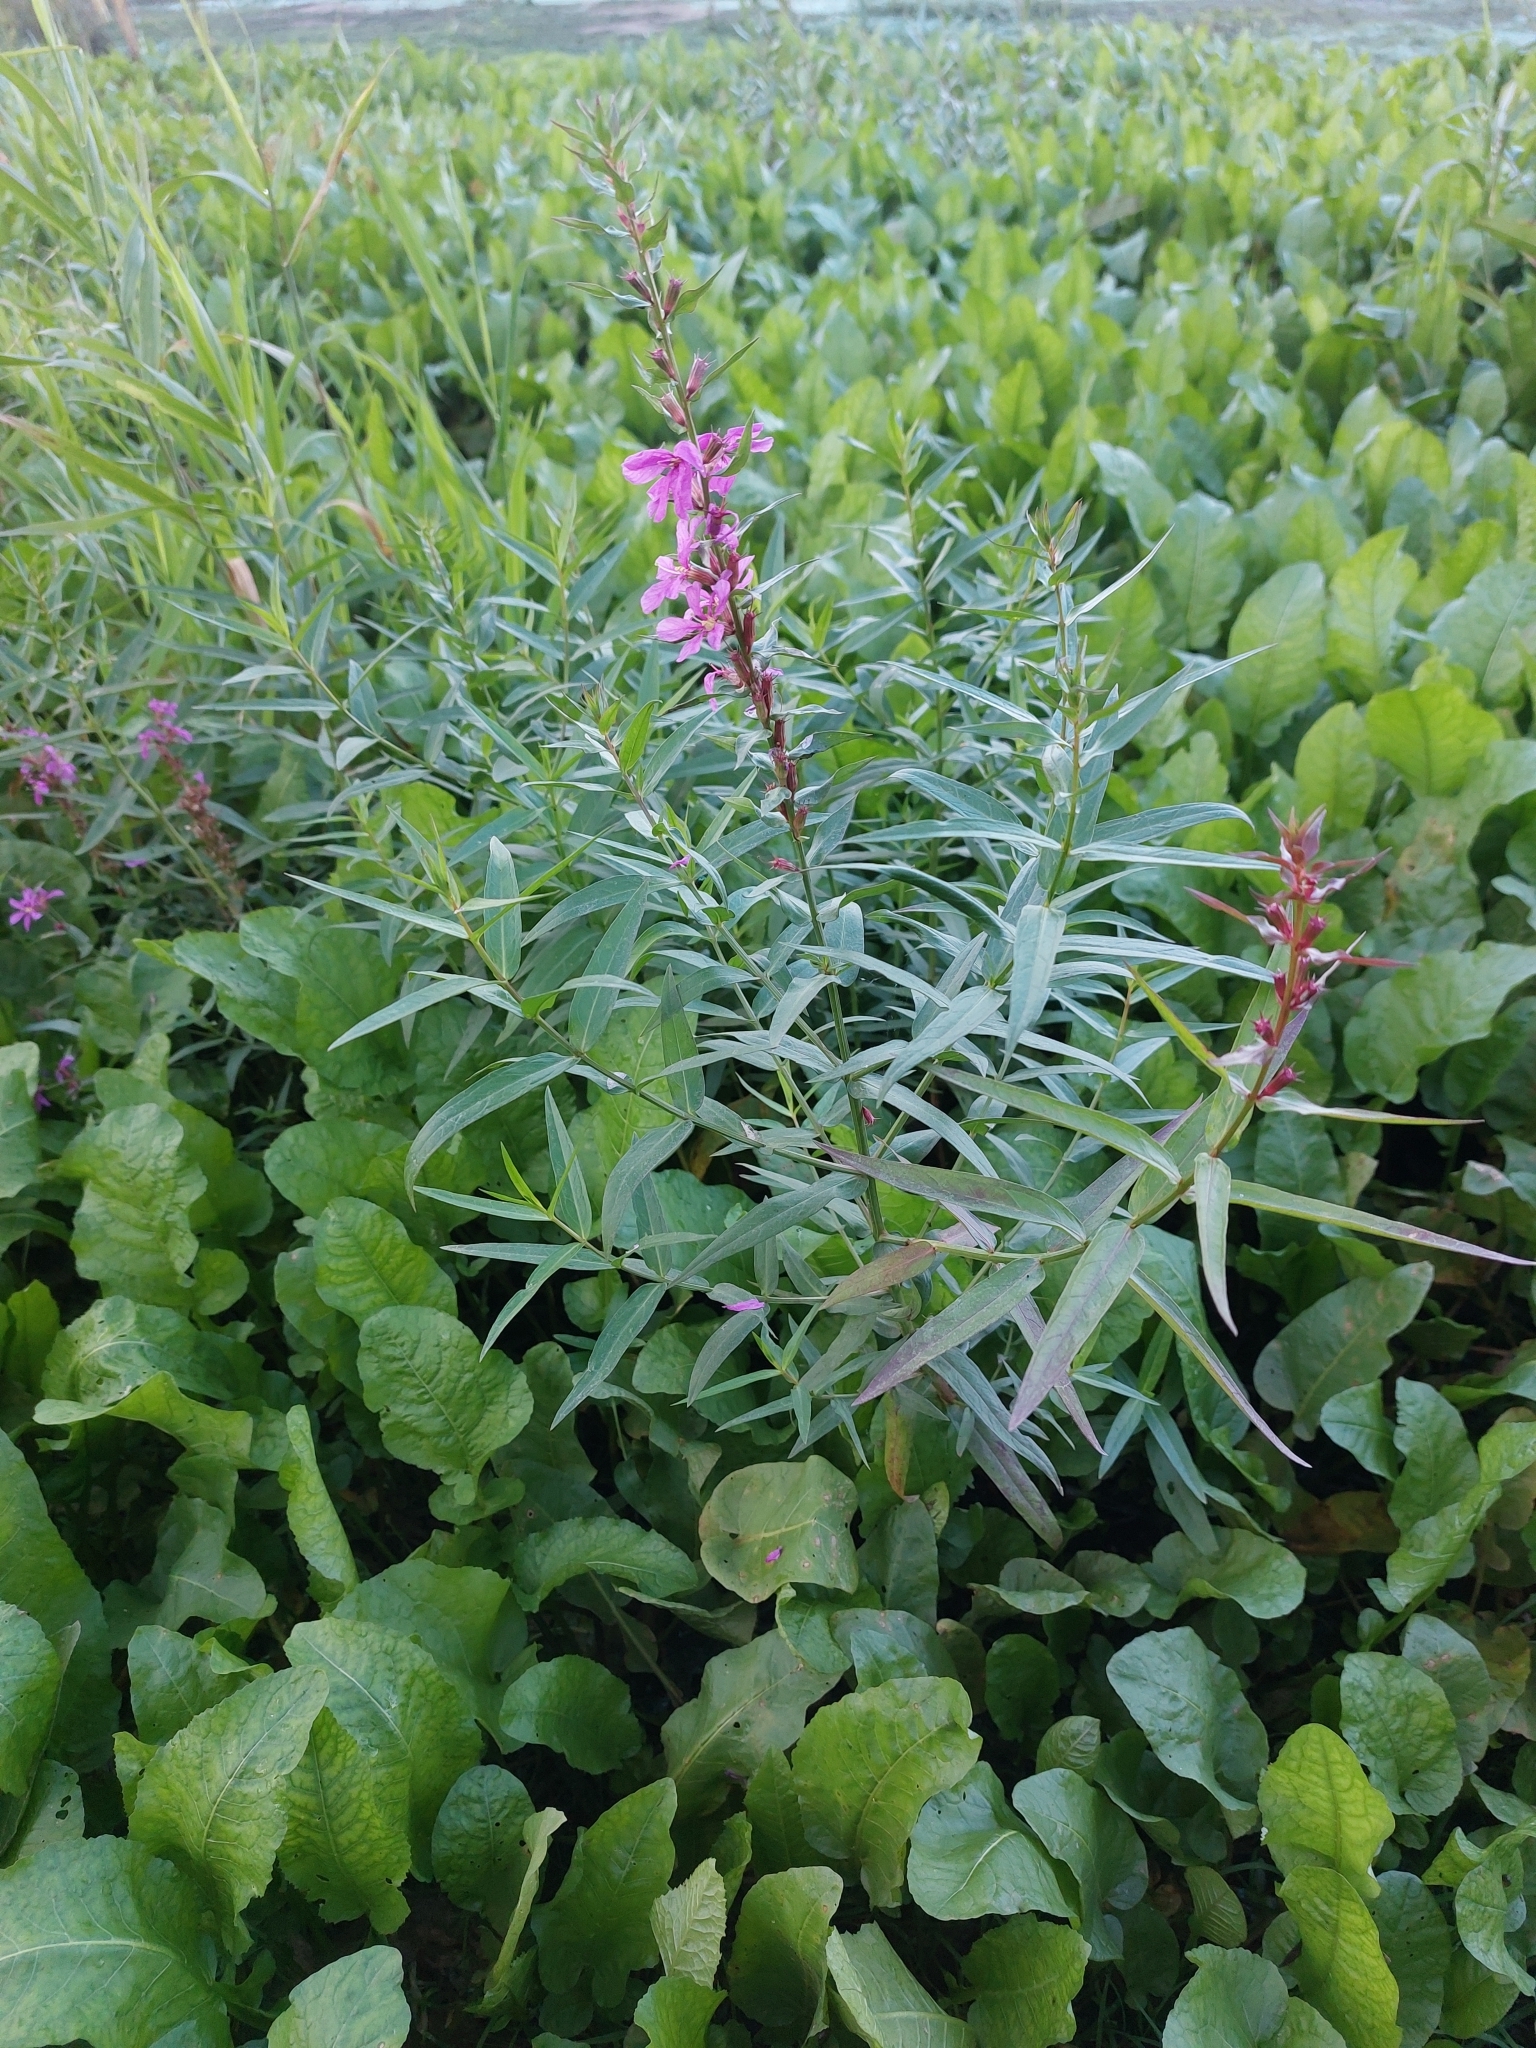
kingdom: Plantae
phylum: Tracheophyta
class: Magnoliopsida
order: Myrtales
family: Lythraceae
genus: Lythrum
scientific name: Lythrum salicaria
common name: Purple loosestrife
